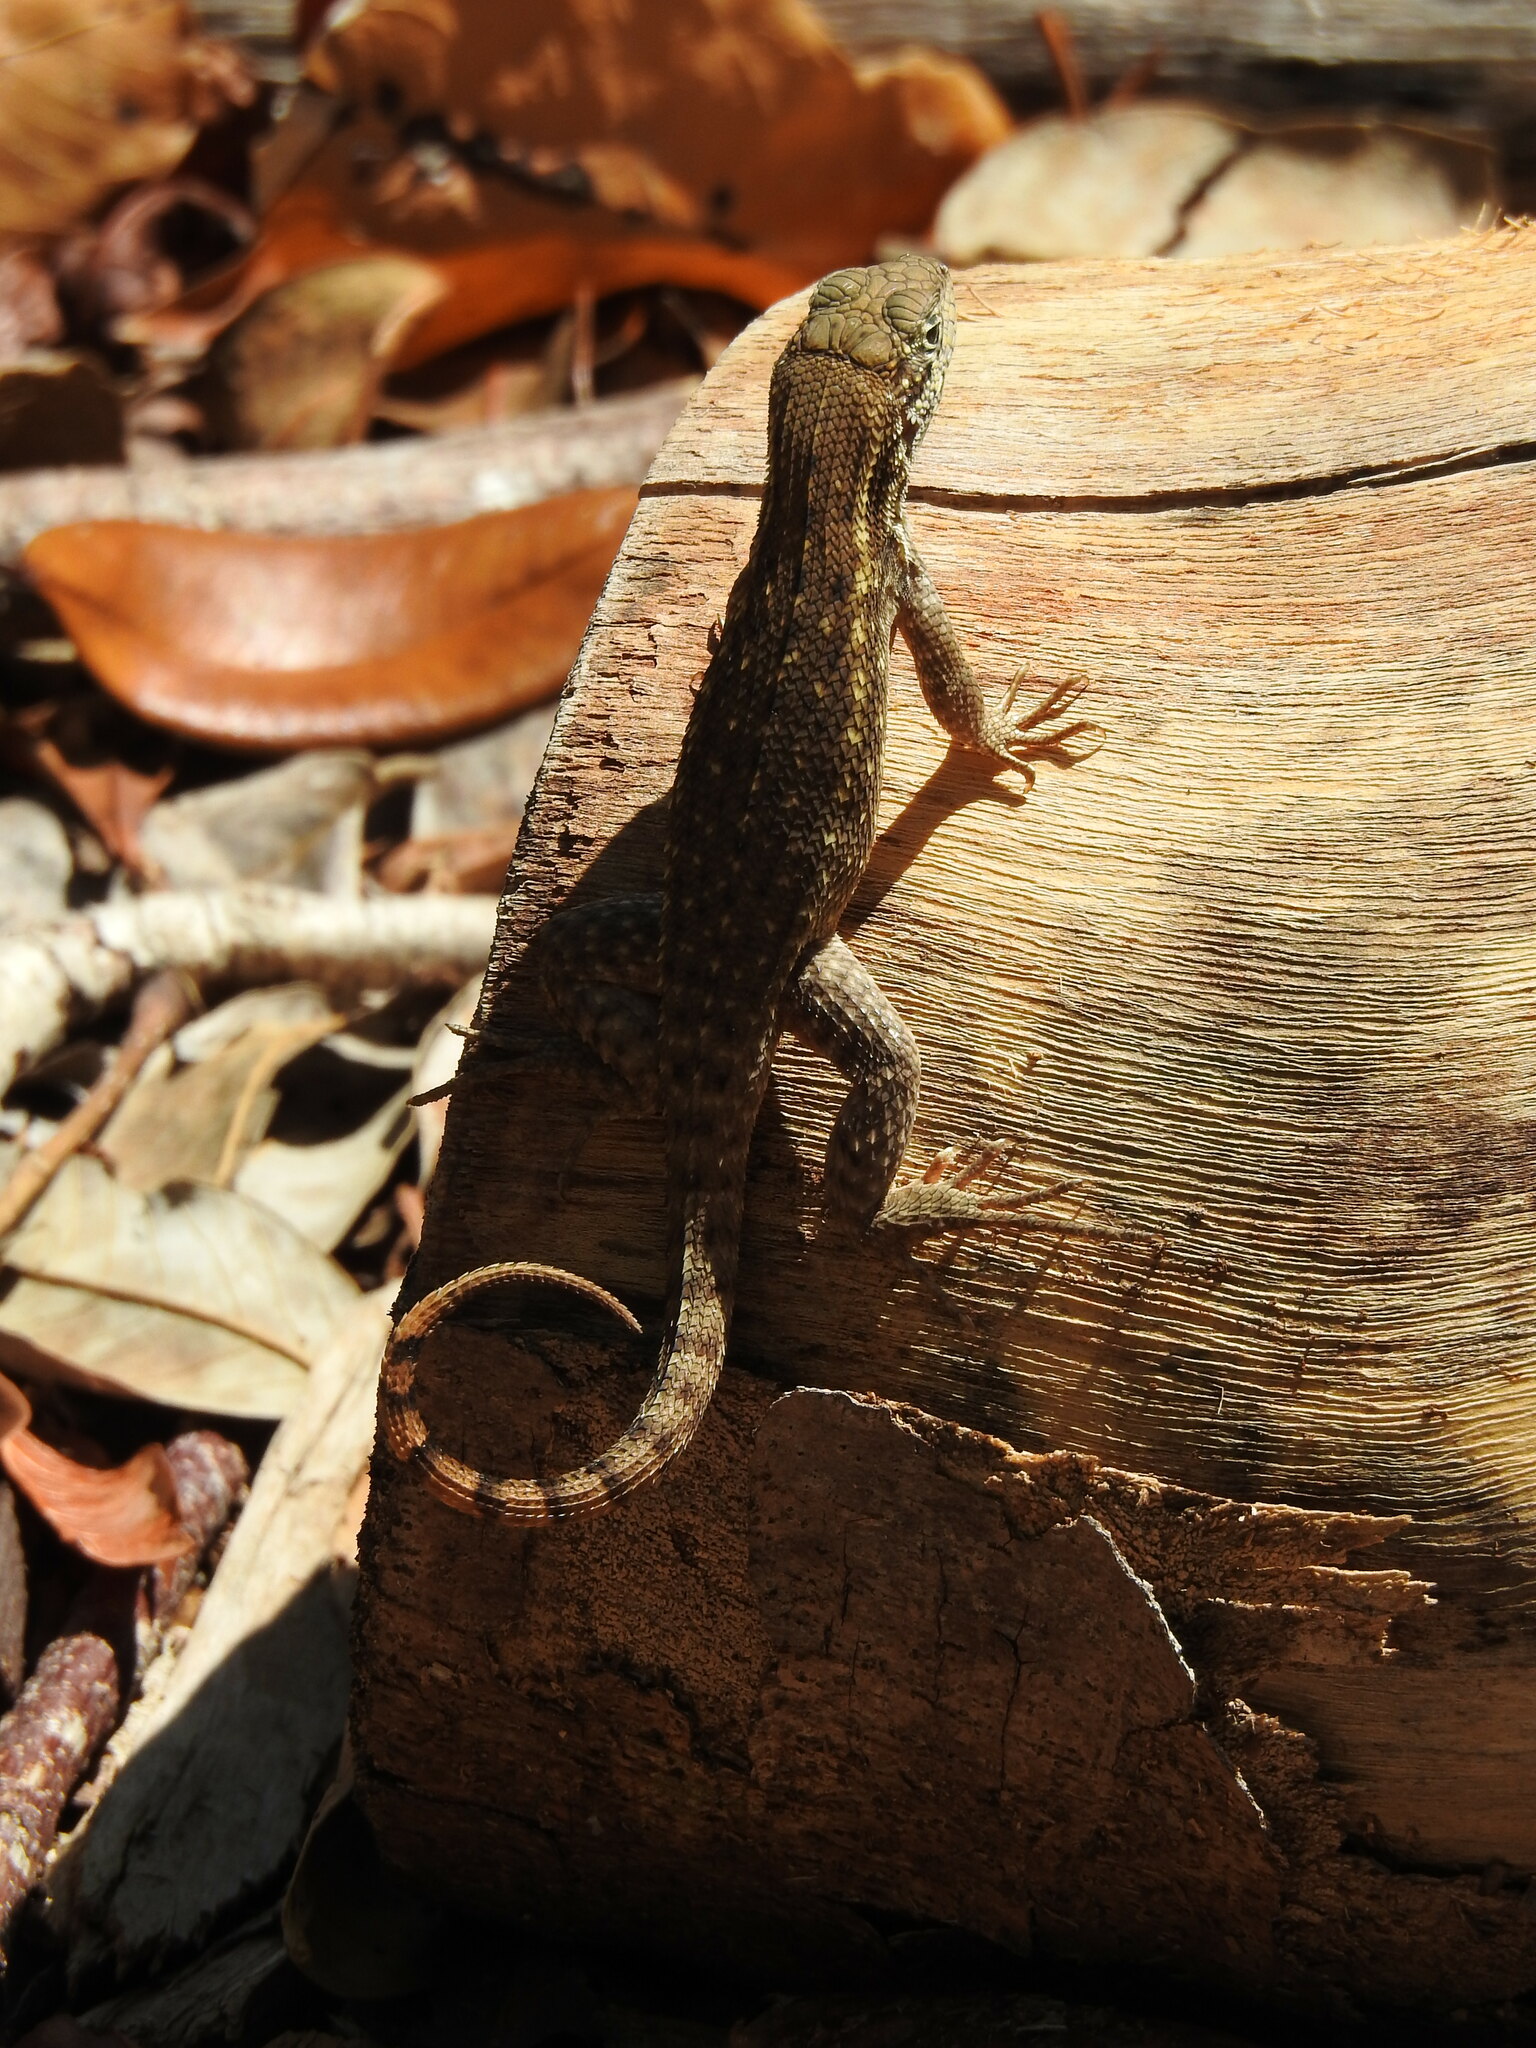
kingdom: Animalia
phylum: Chordata
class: Squamata
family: Leiocephalidae
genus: Leiocephalus
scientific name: Leiocephalus carinatus
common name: Northern curly-tailed lizard
